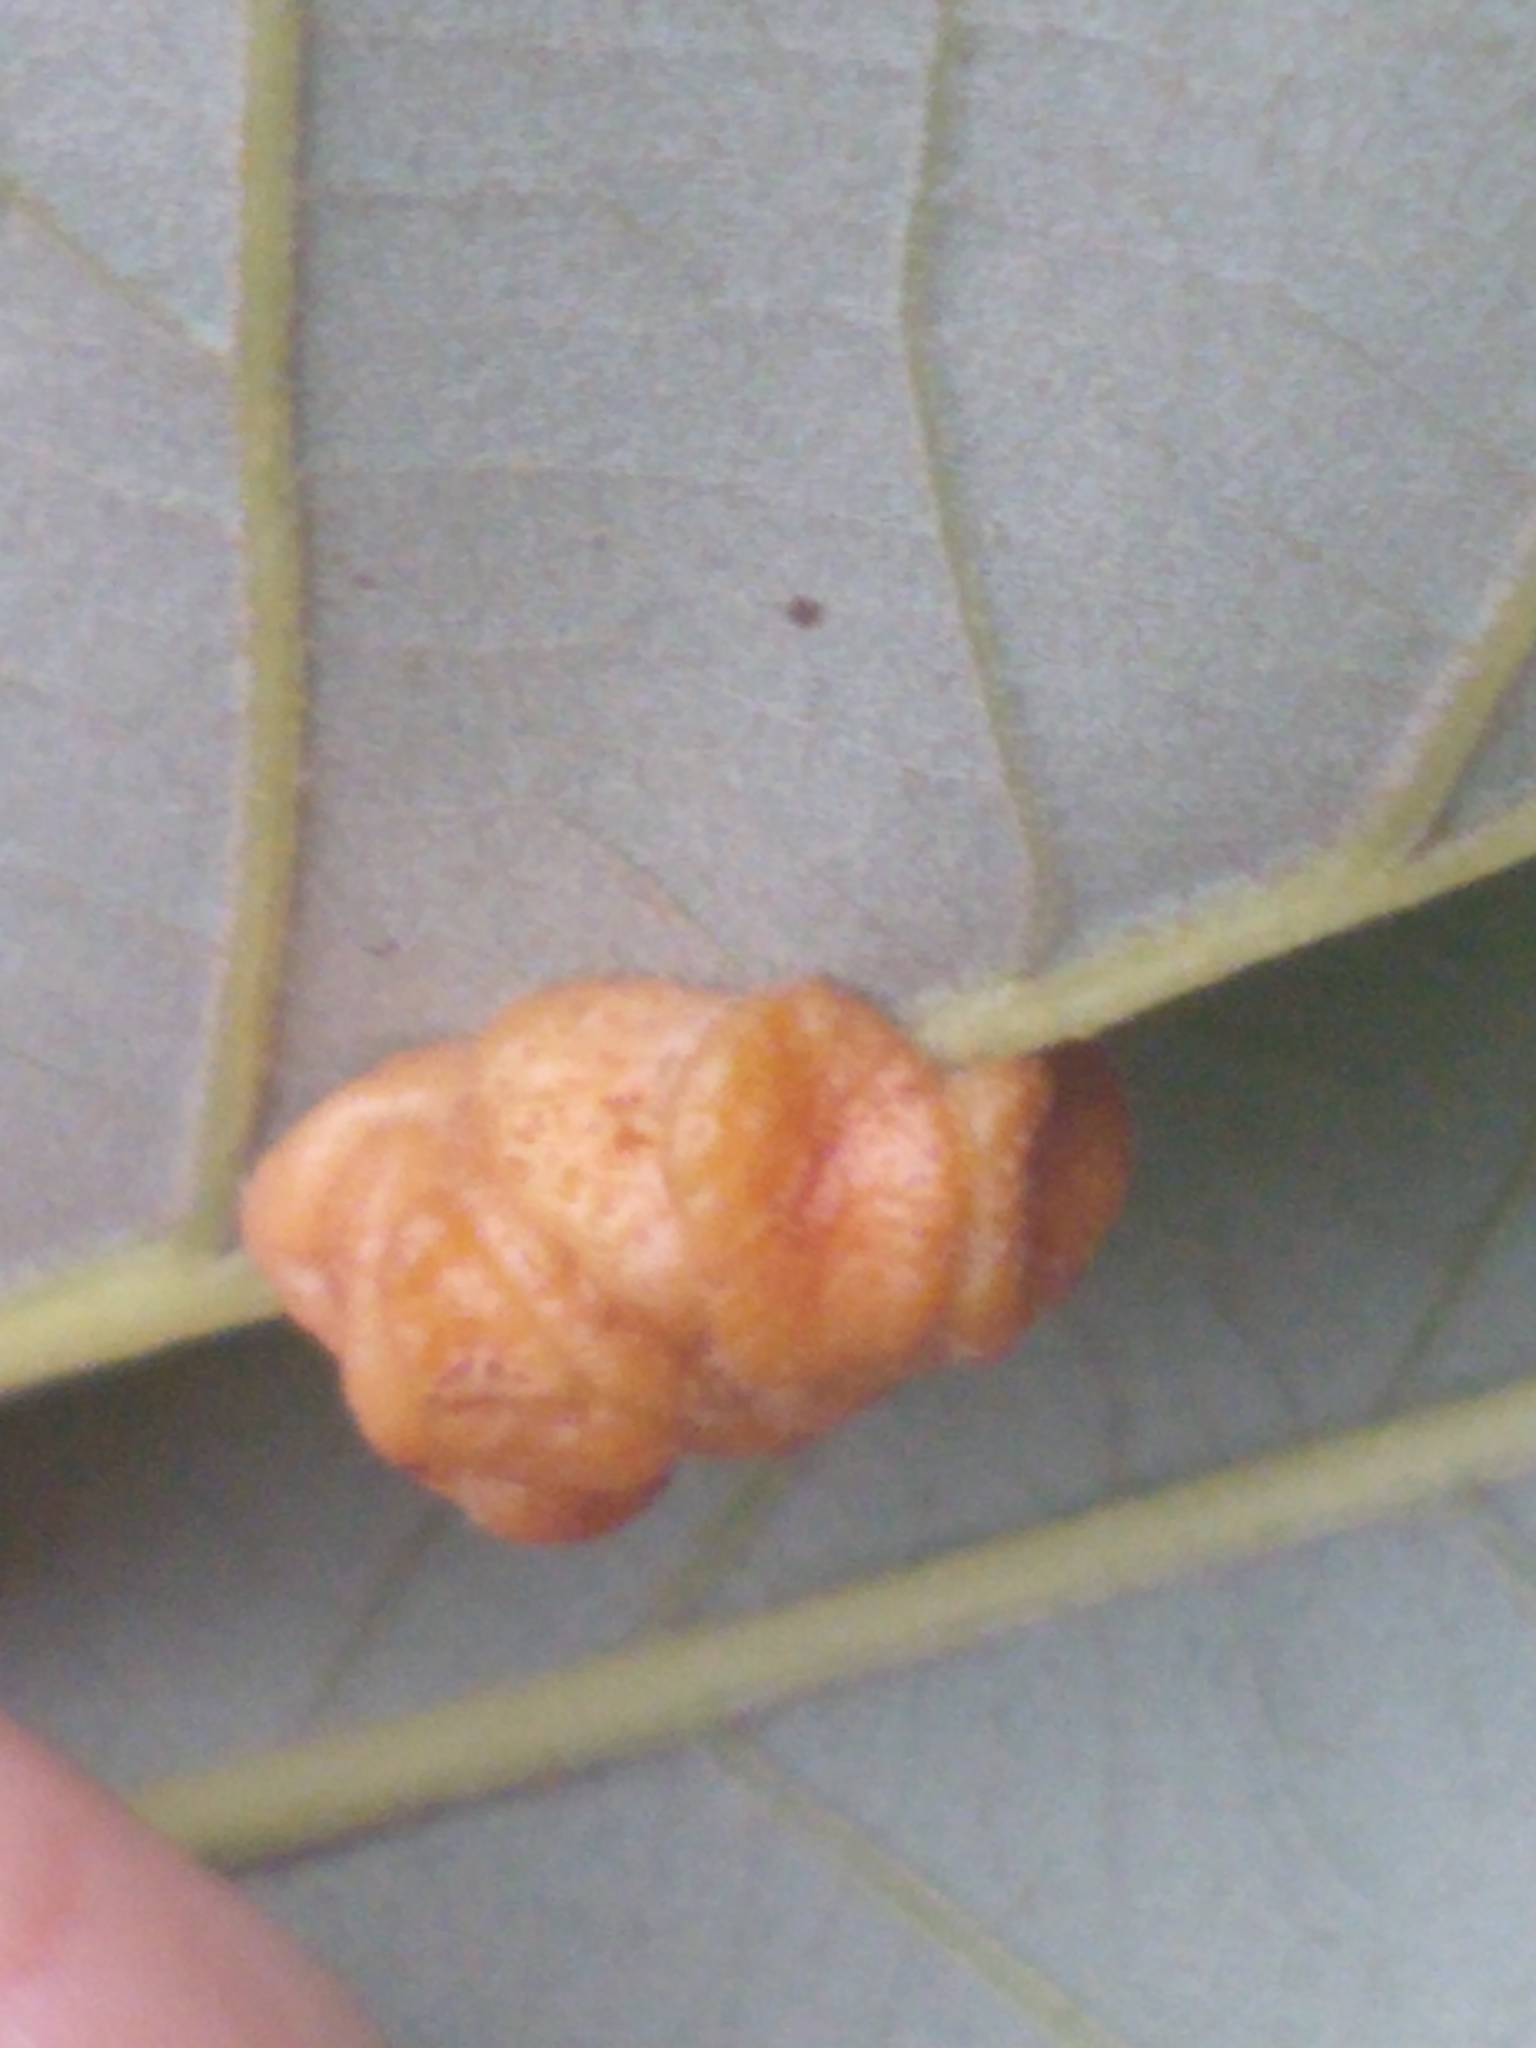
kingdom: Animalia
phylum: Arthropoda
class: Insecta
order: Hymenoptera
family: Cynipidae
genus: Andricus
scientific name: Andricus
